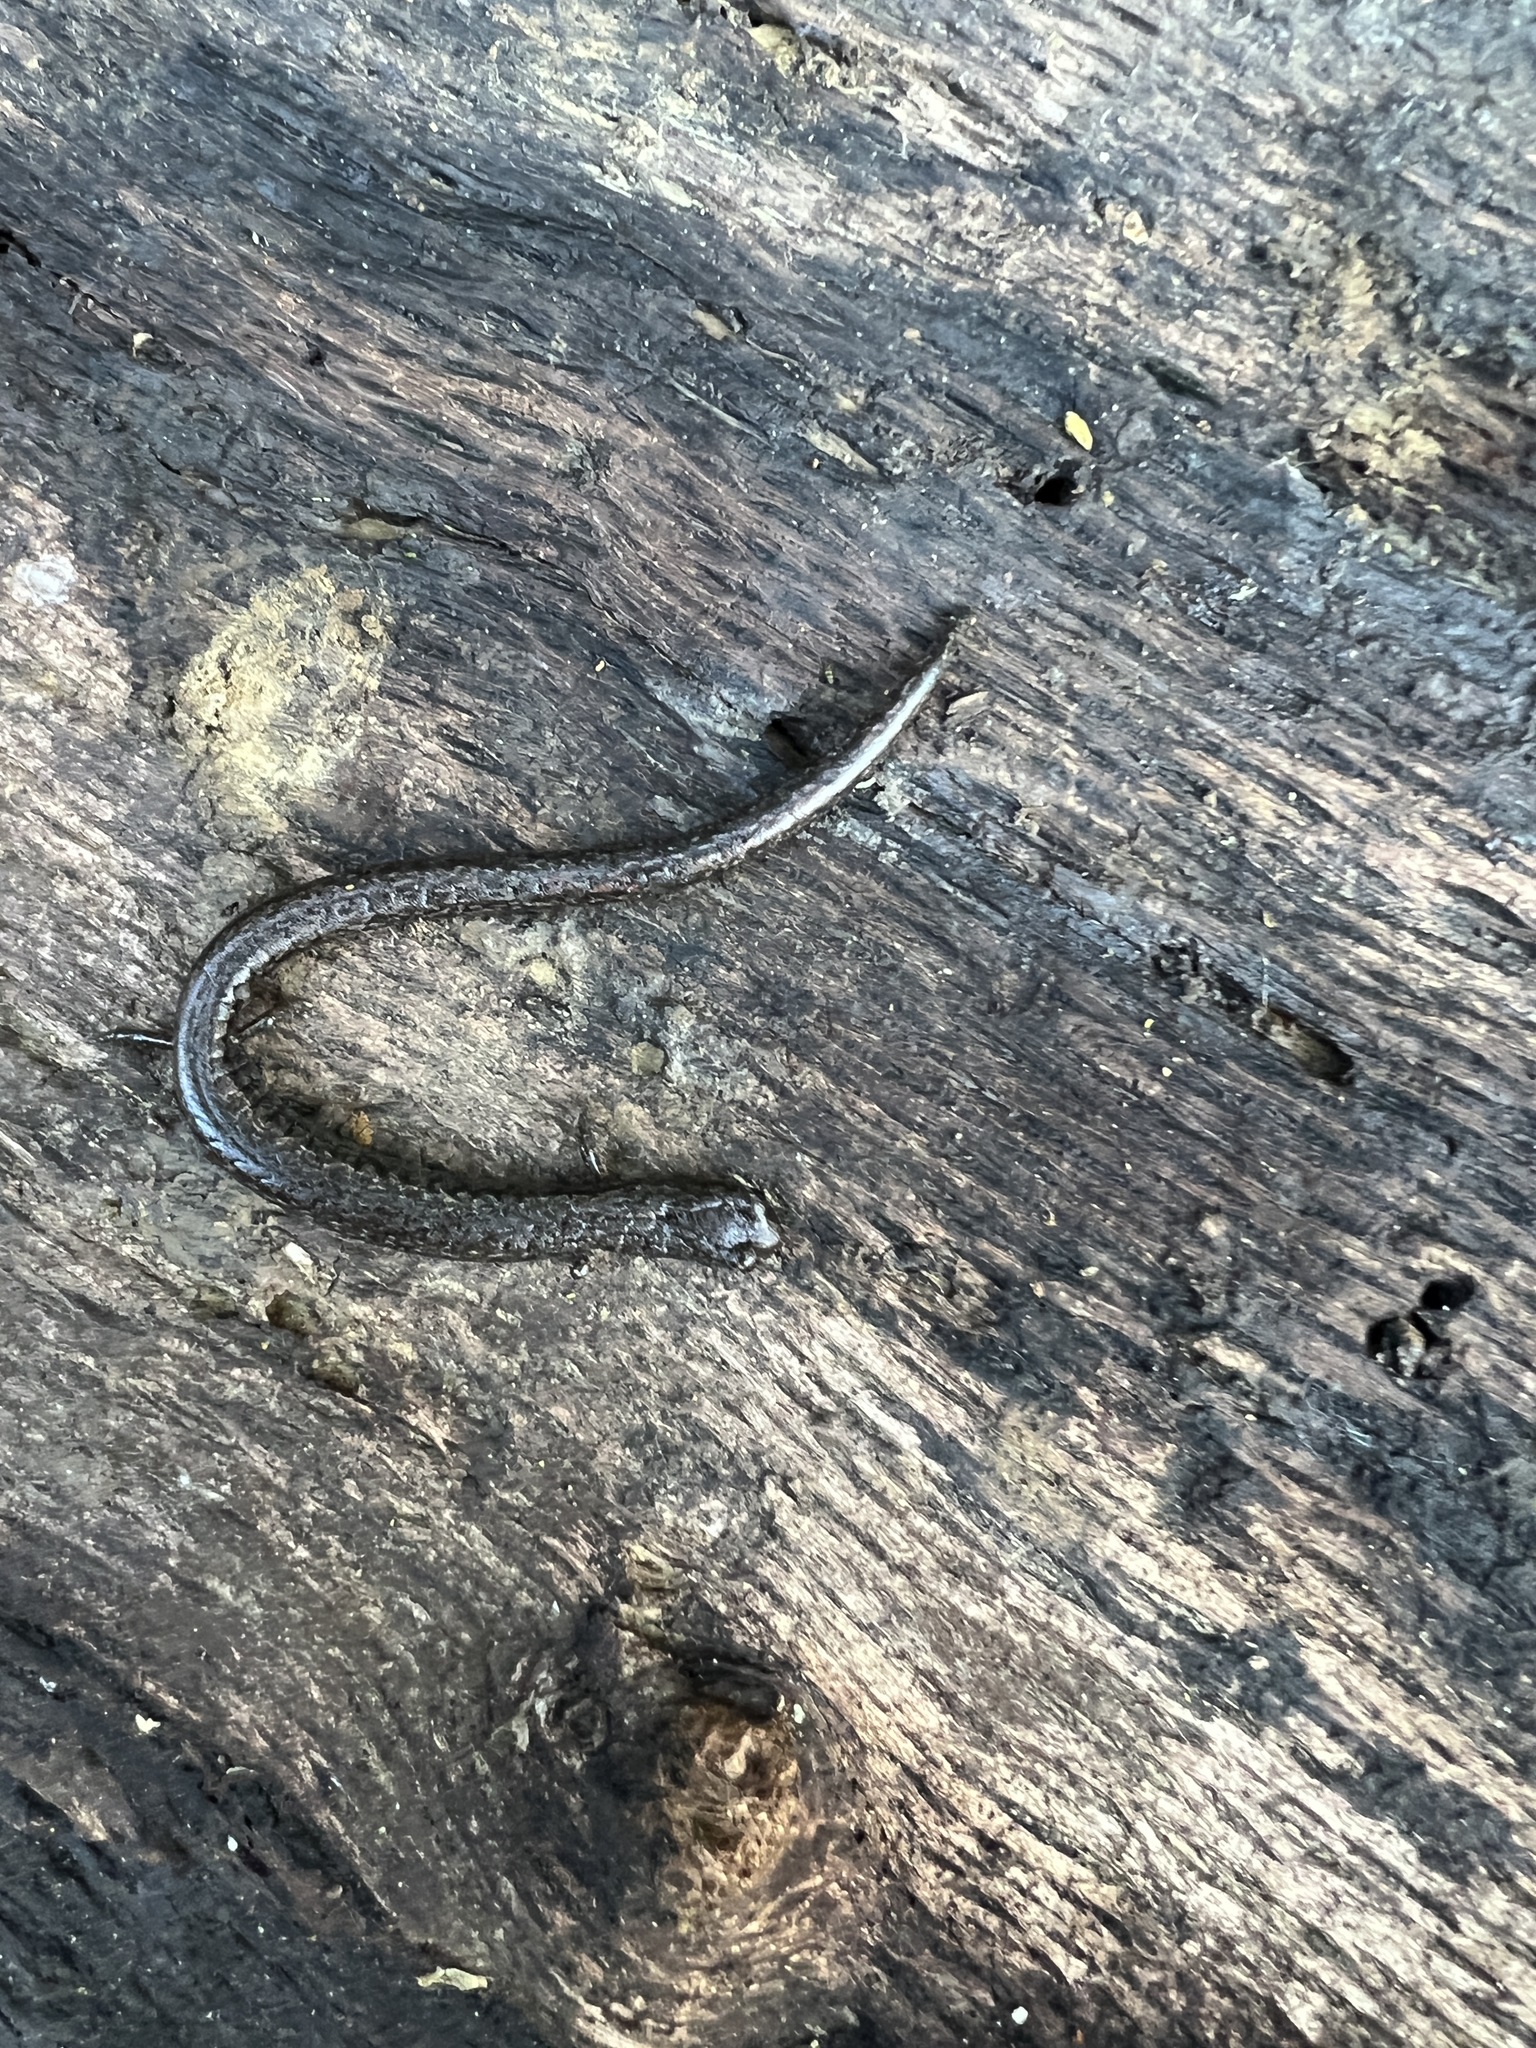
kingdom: Animalia
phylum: Chordata
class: Amphibia
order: Caudata
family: Plethodontidae
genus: Batrachoseps
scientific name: Batrachoseps nigriventris
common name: Black-bellied slender salamander
